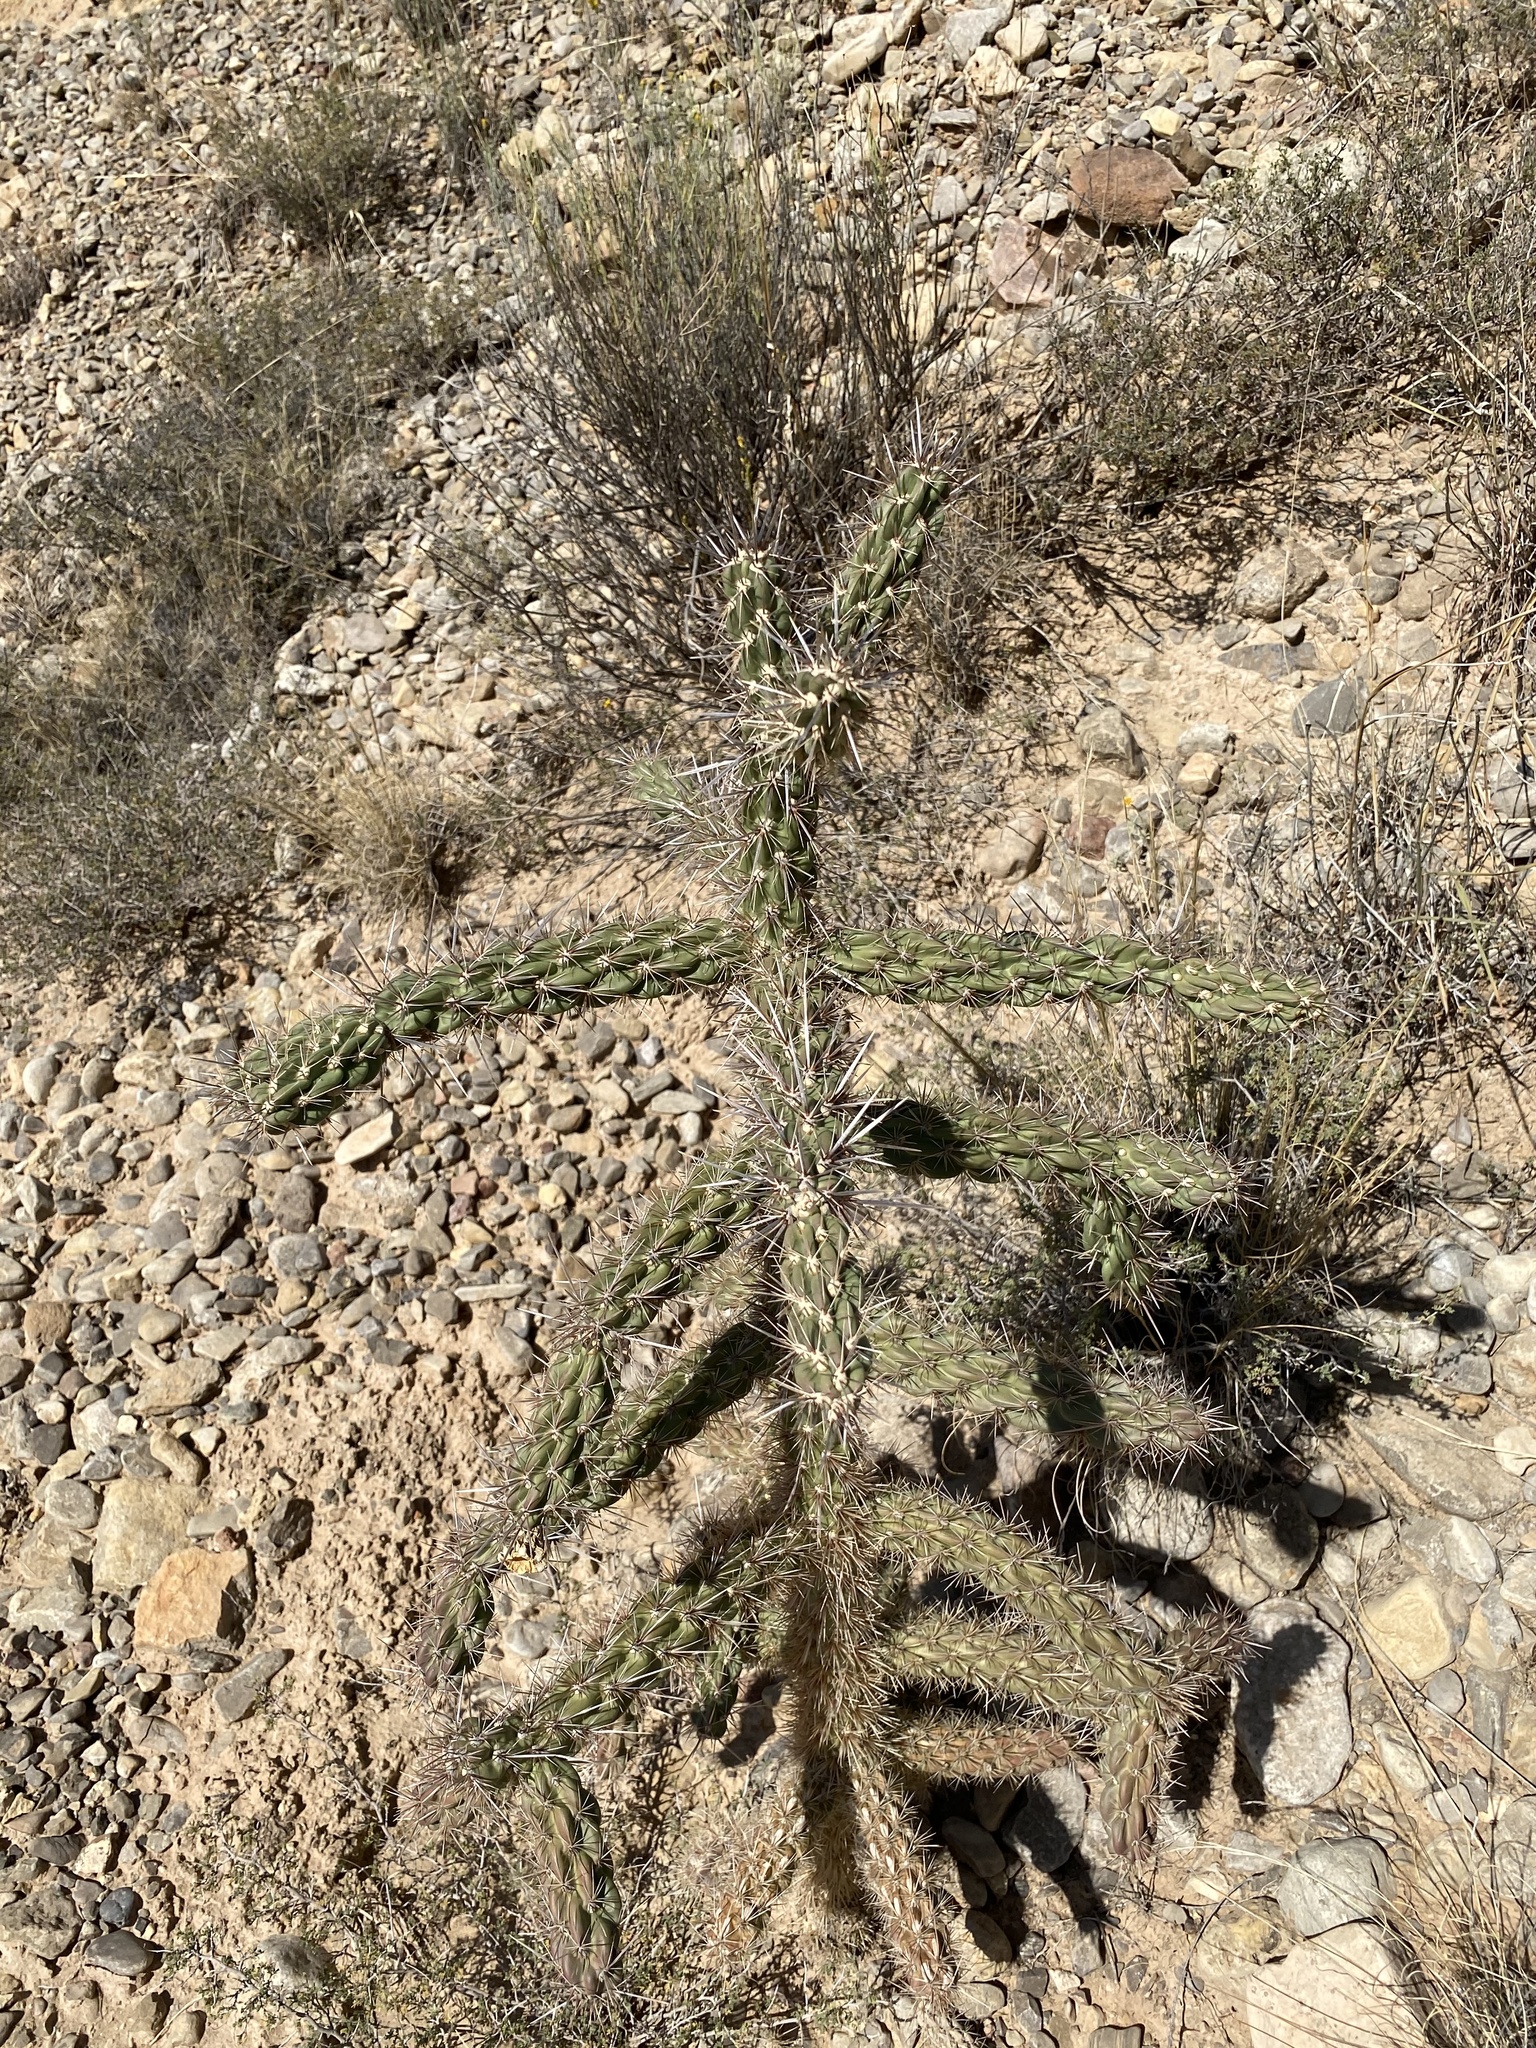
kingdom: Plantae
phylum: Tracheophyta
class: Magnoliopsida
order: Caryophyllales
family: Cactaceae
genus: Cylindropuntia
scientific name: Cylindropuntia imbricata
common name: Candelabrum cactus
